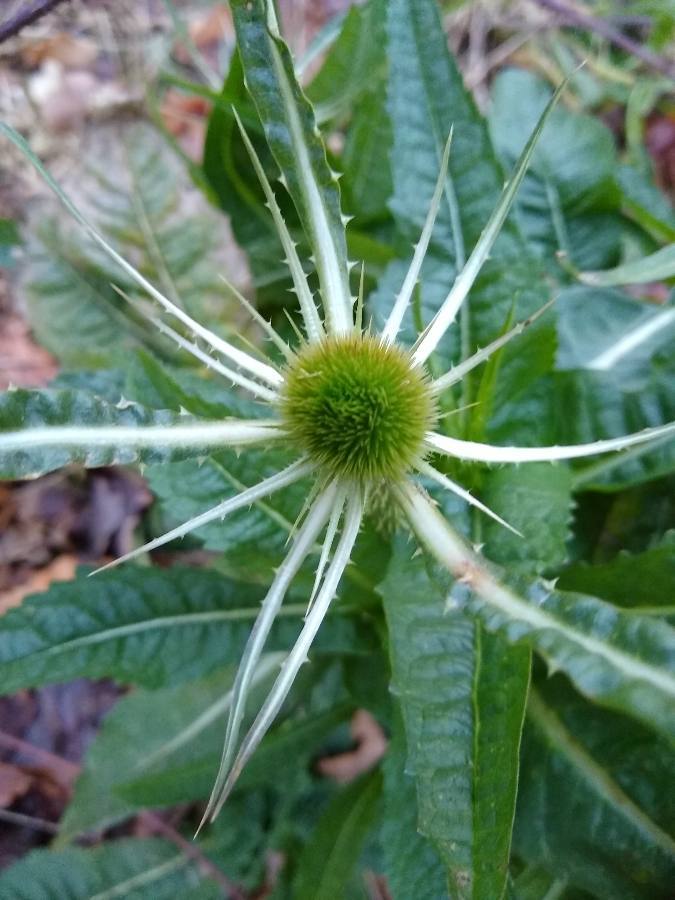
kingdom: Plantae
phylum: Tracheophyta
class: Magnoliopsida
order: Dipsacales
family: Caprifoliaceae
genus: Dipsacus
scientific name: Dipsacus fullonum
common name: Teasel
